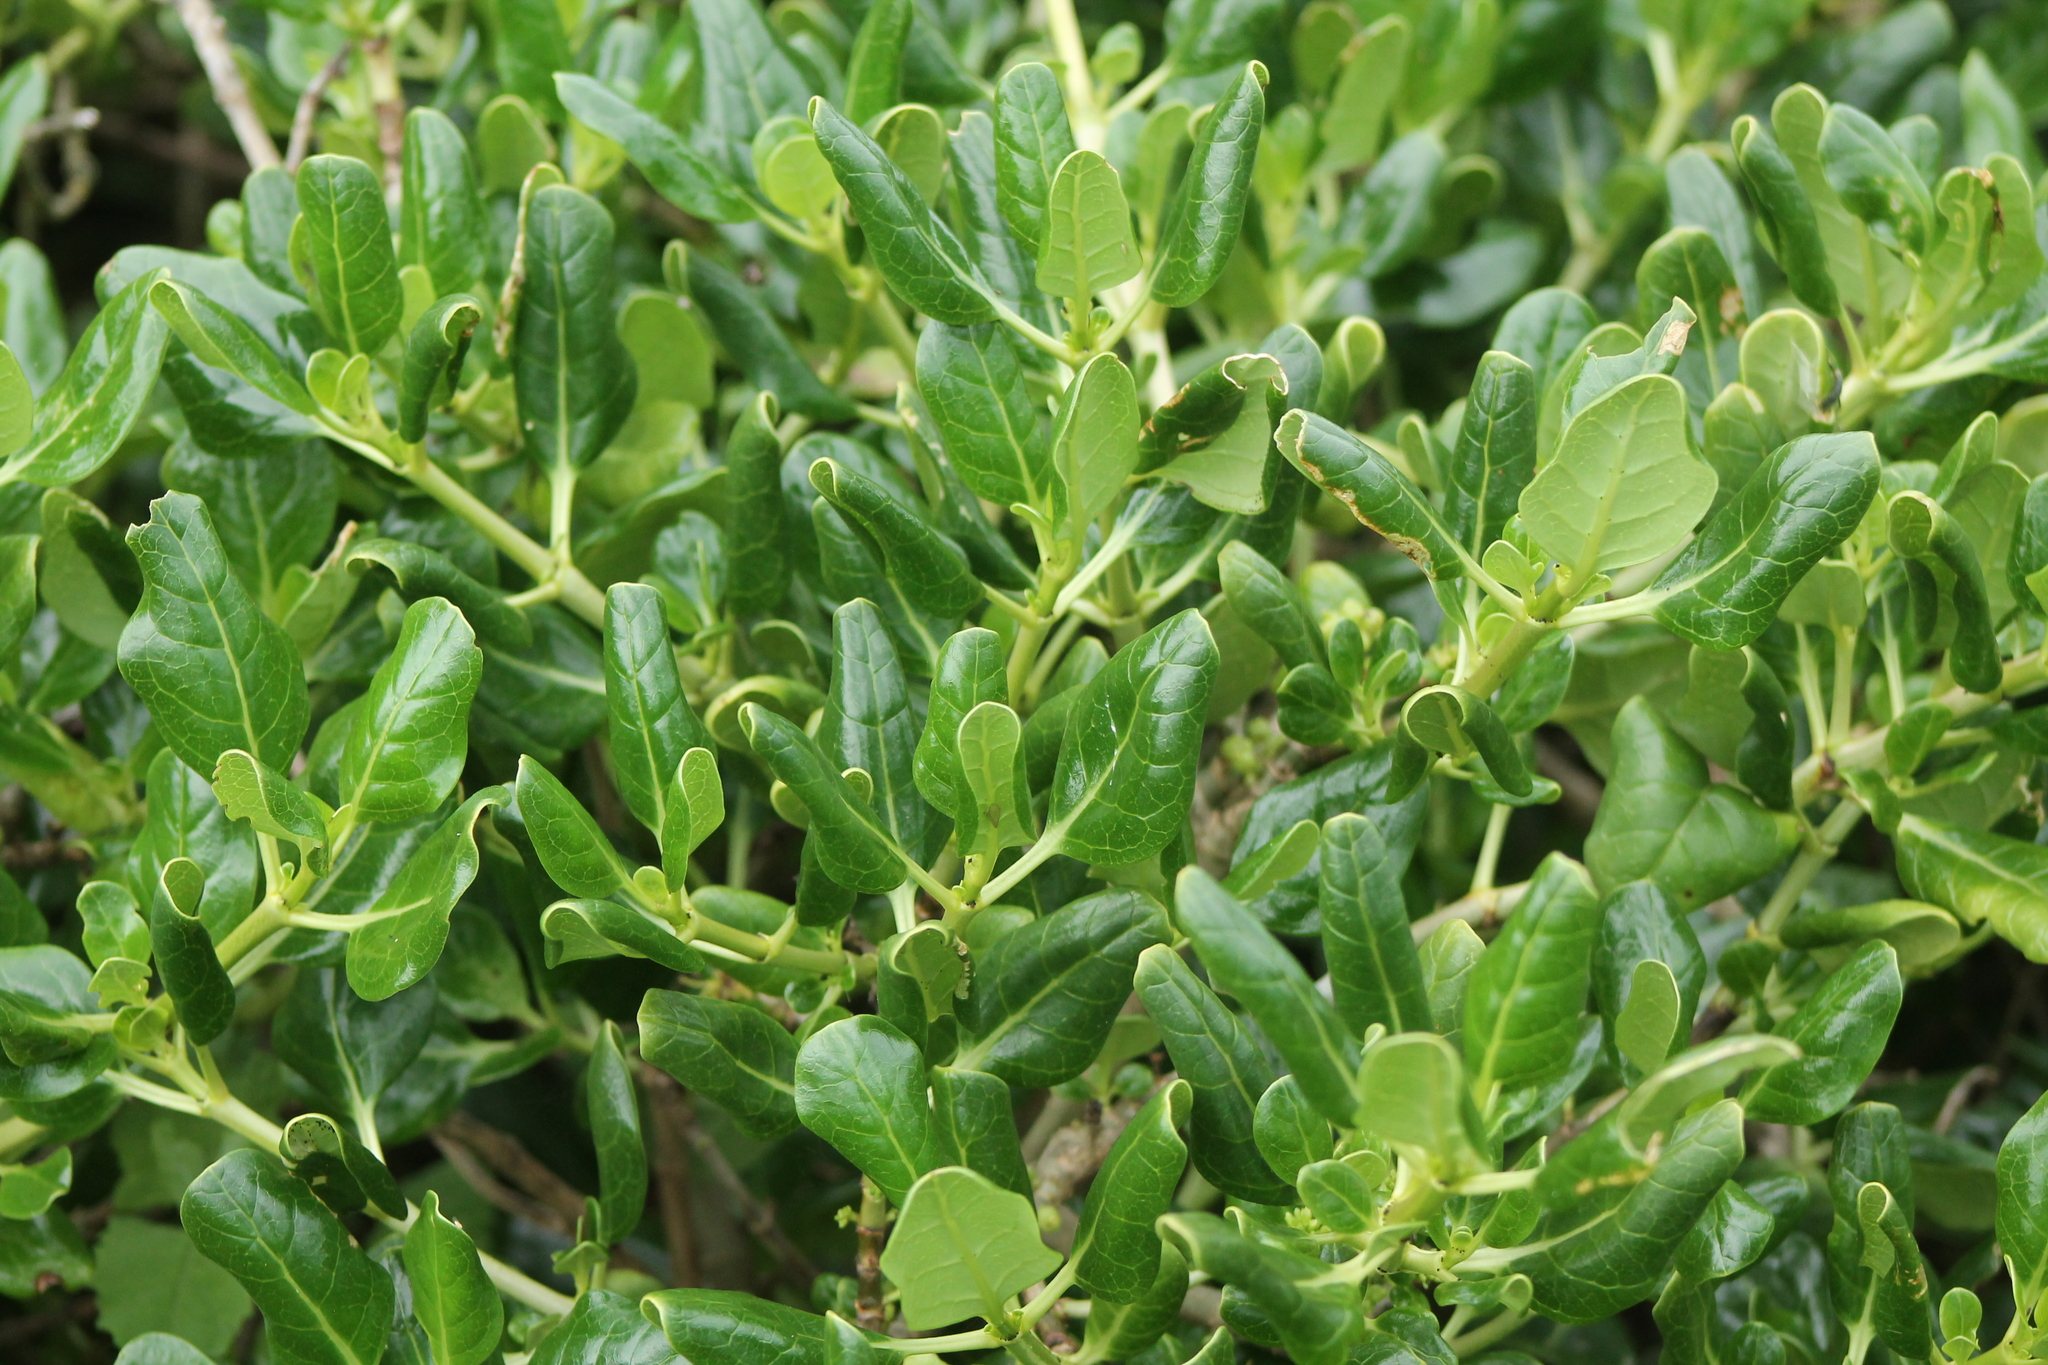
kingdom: Plantae
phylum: Tracheophyta
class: Magnoliopsida
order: Gentianales
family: Rubiaceae
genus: Coprosma
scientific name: Coprosma repens
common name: Tree bedstraw
